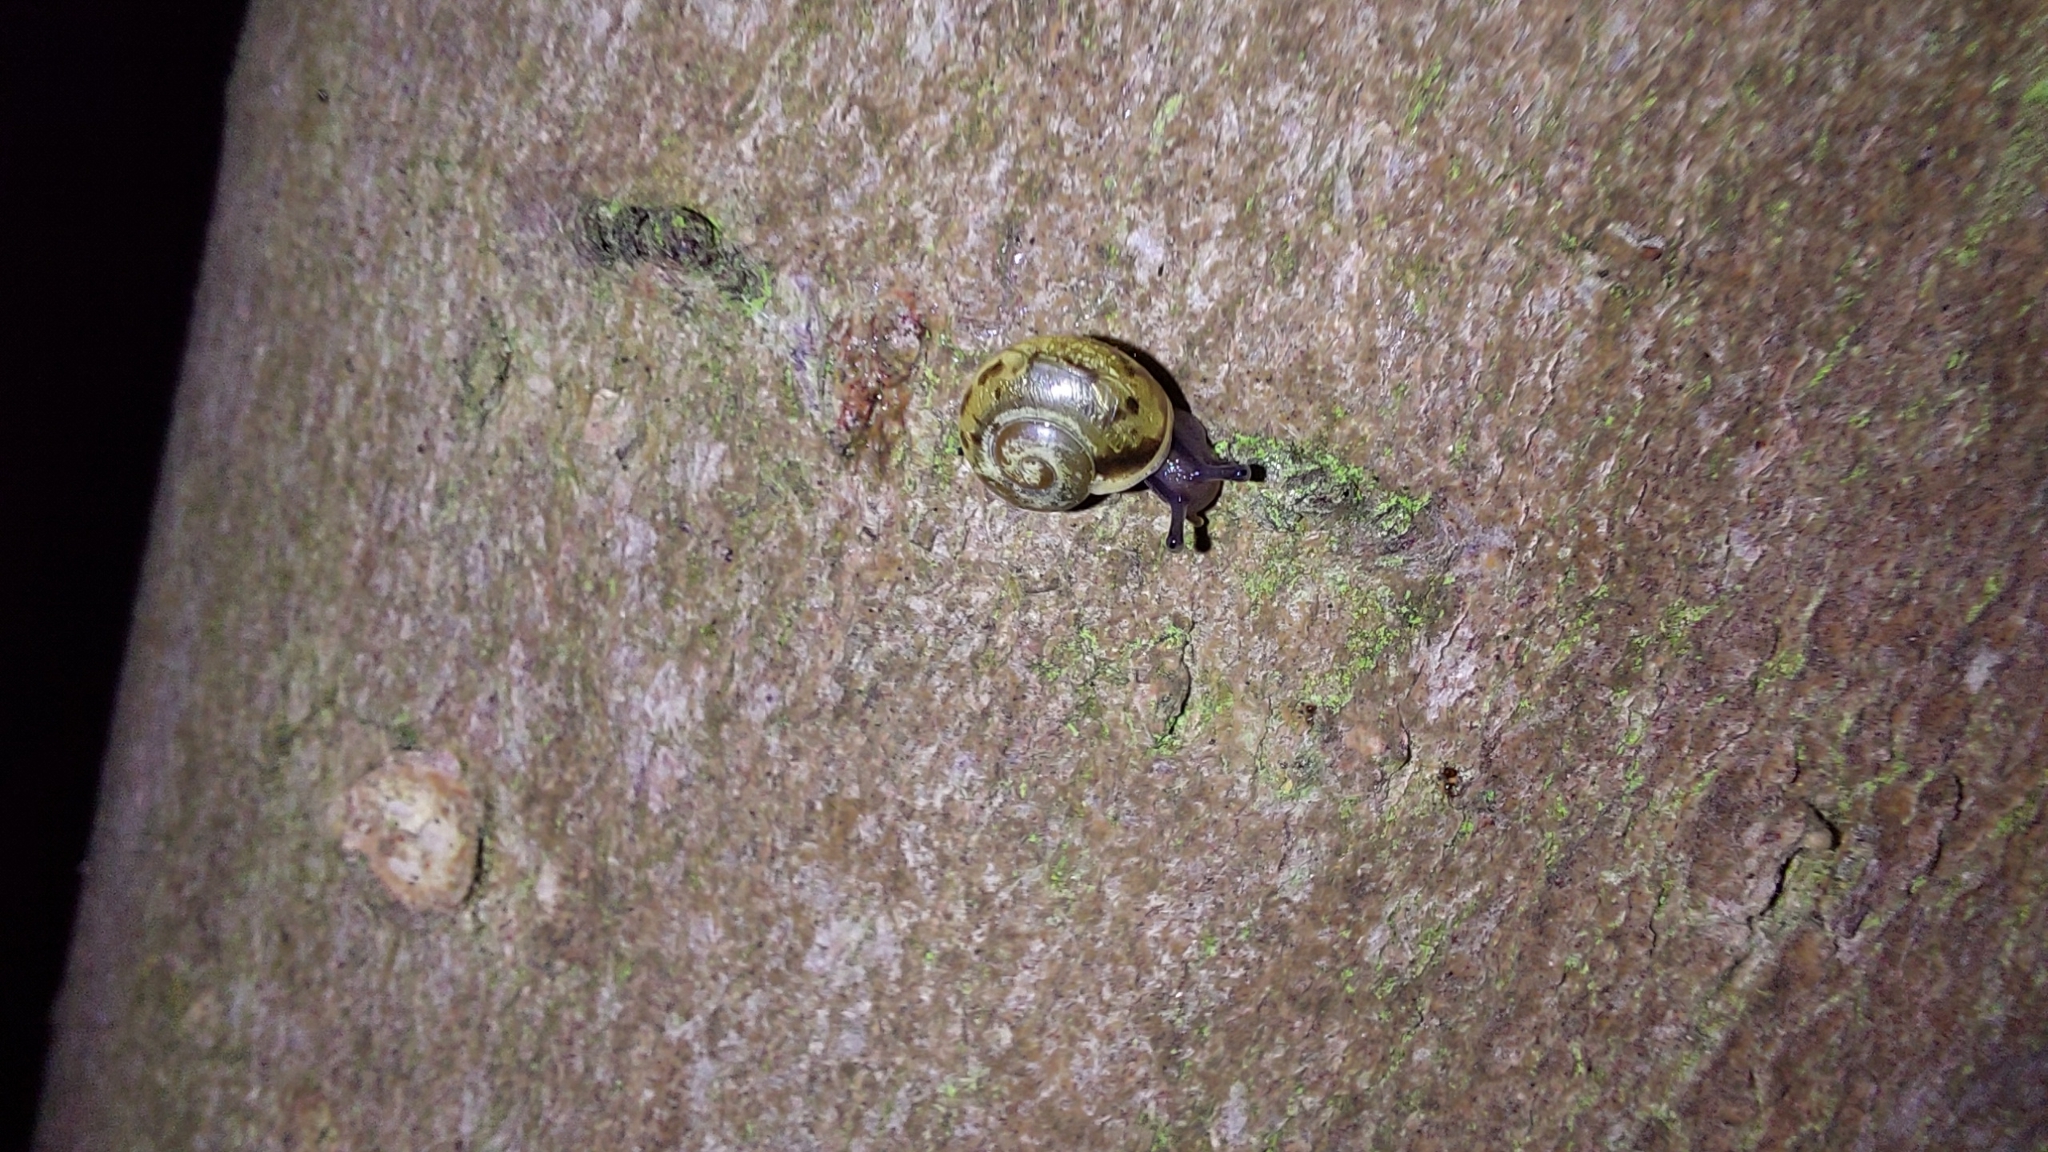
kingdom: Animalia
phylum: Mollusca
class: Gastropoda
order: Stylommatophora
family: Helicidae
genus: Cepaea
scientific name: Cepaea hortensis
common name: White-lip gardensnail
